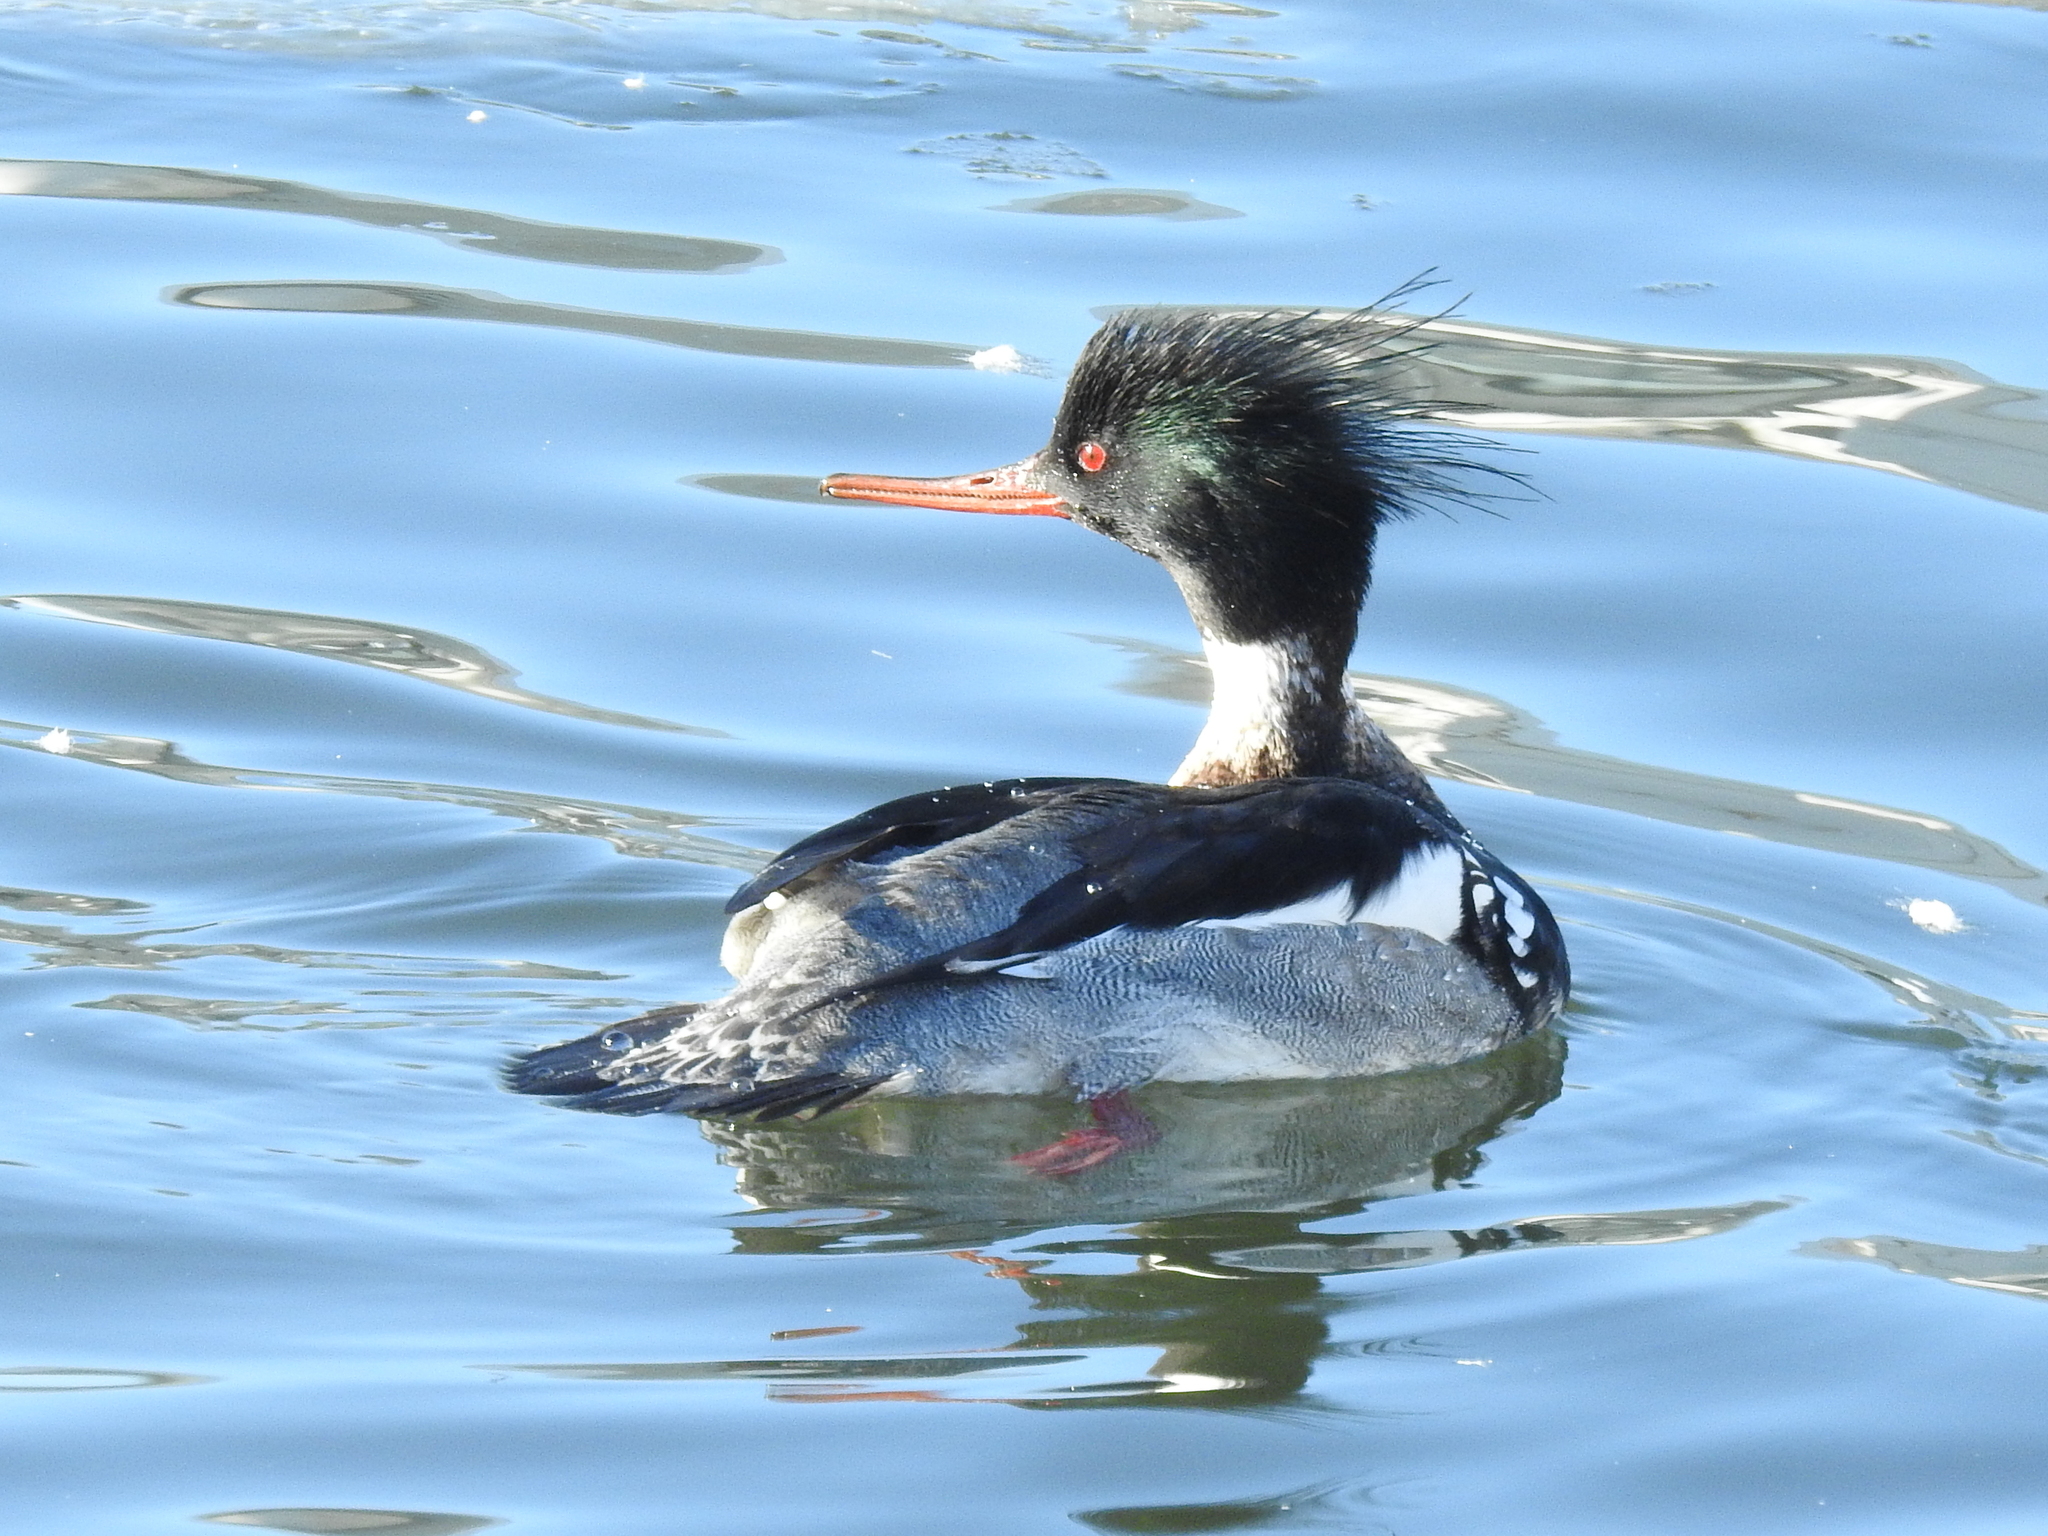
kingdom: Animalia
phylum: Chordata
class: Aves
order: Anseriformes
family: Anatidae
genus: Mergus
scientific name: Mergus serrator
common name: Red-breasted merganser
